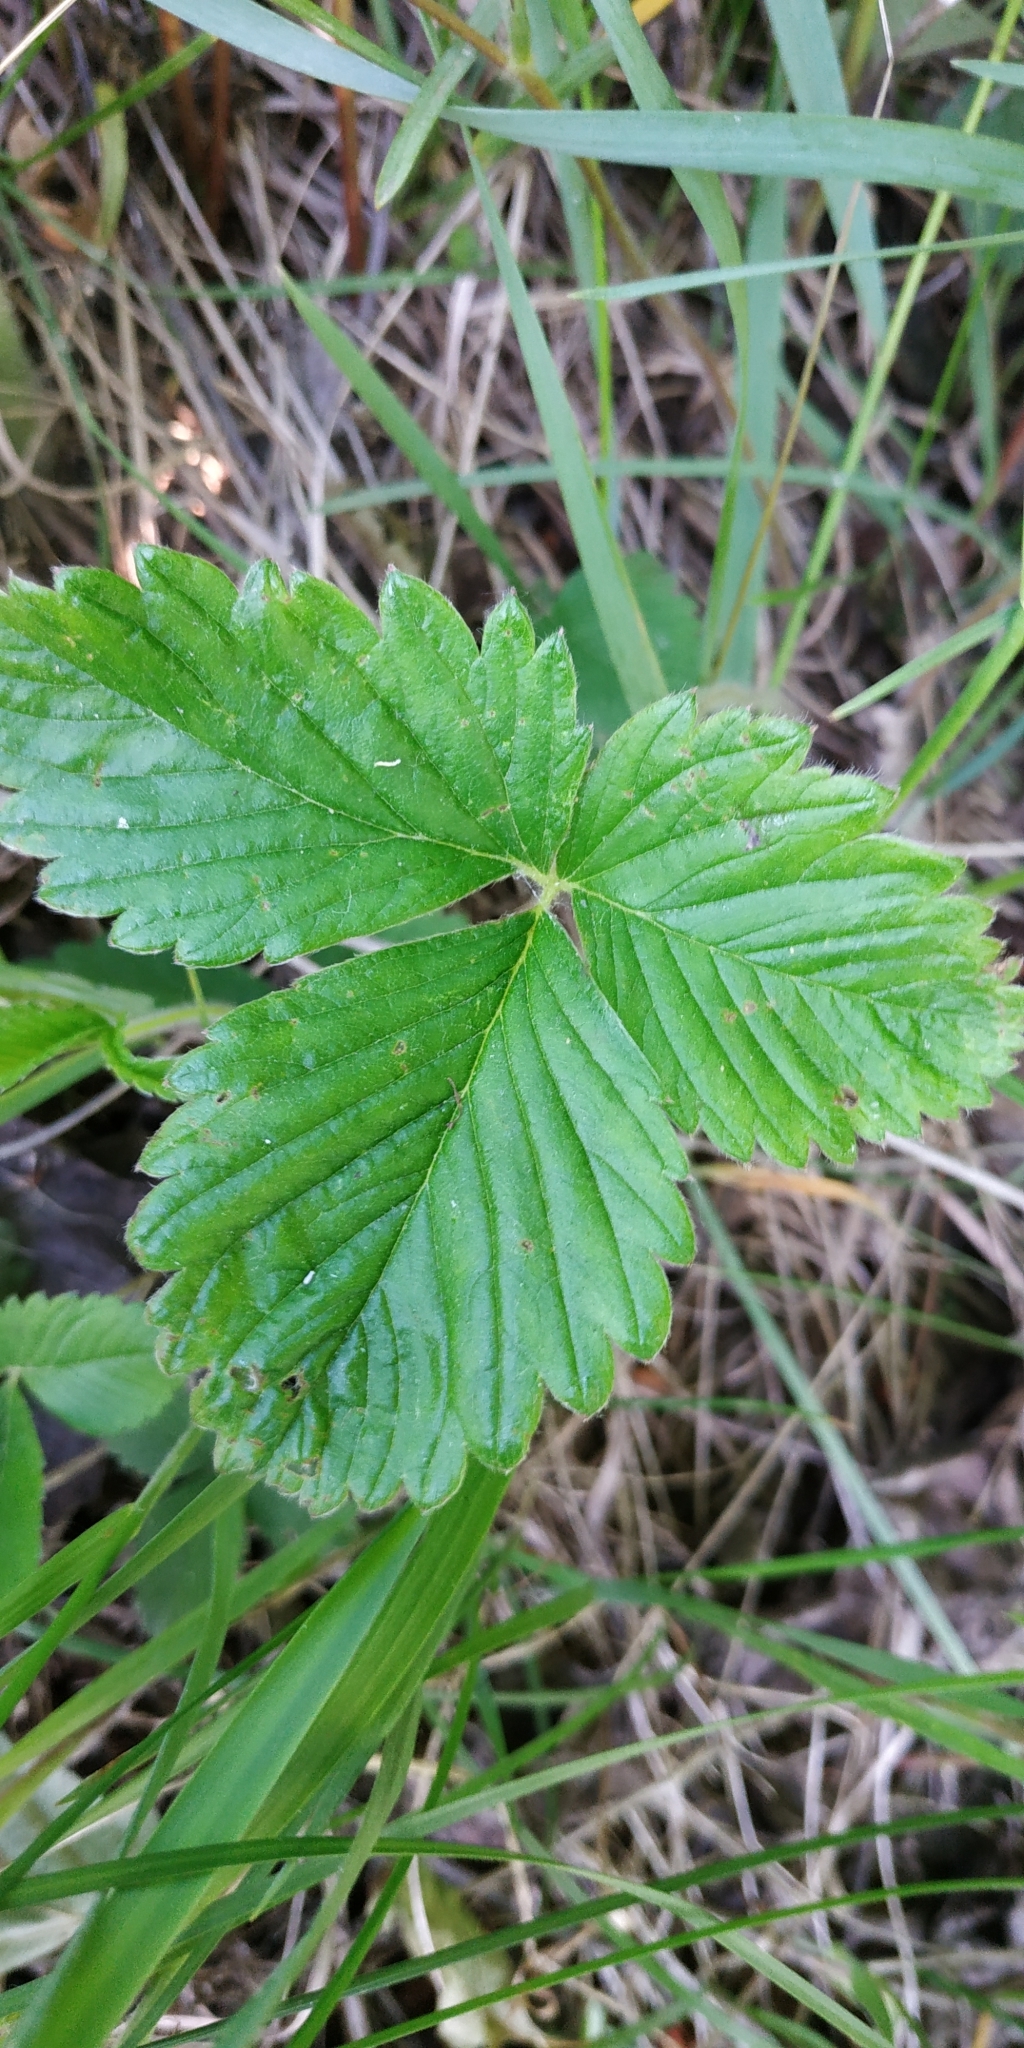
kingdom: Plantae
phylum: Tracheophyta
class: Magnoliopsida
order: Rosales
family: Rosaceae
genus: Fragaria
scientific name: Fragaria viridis
